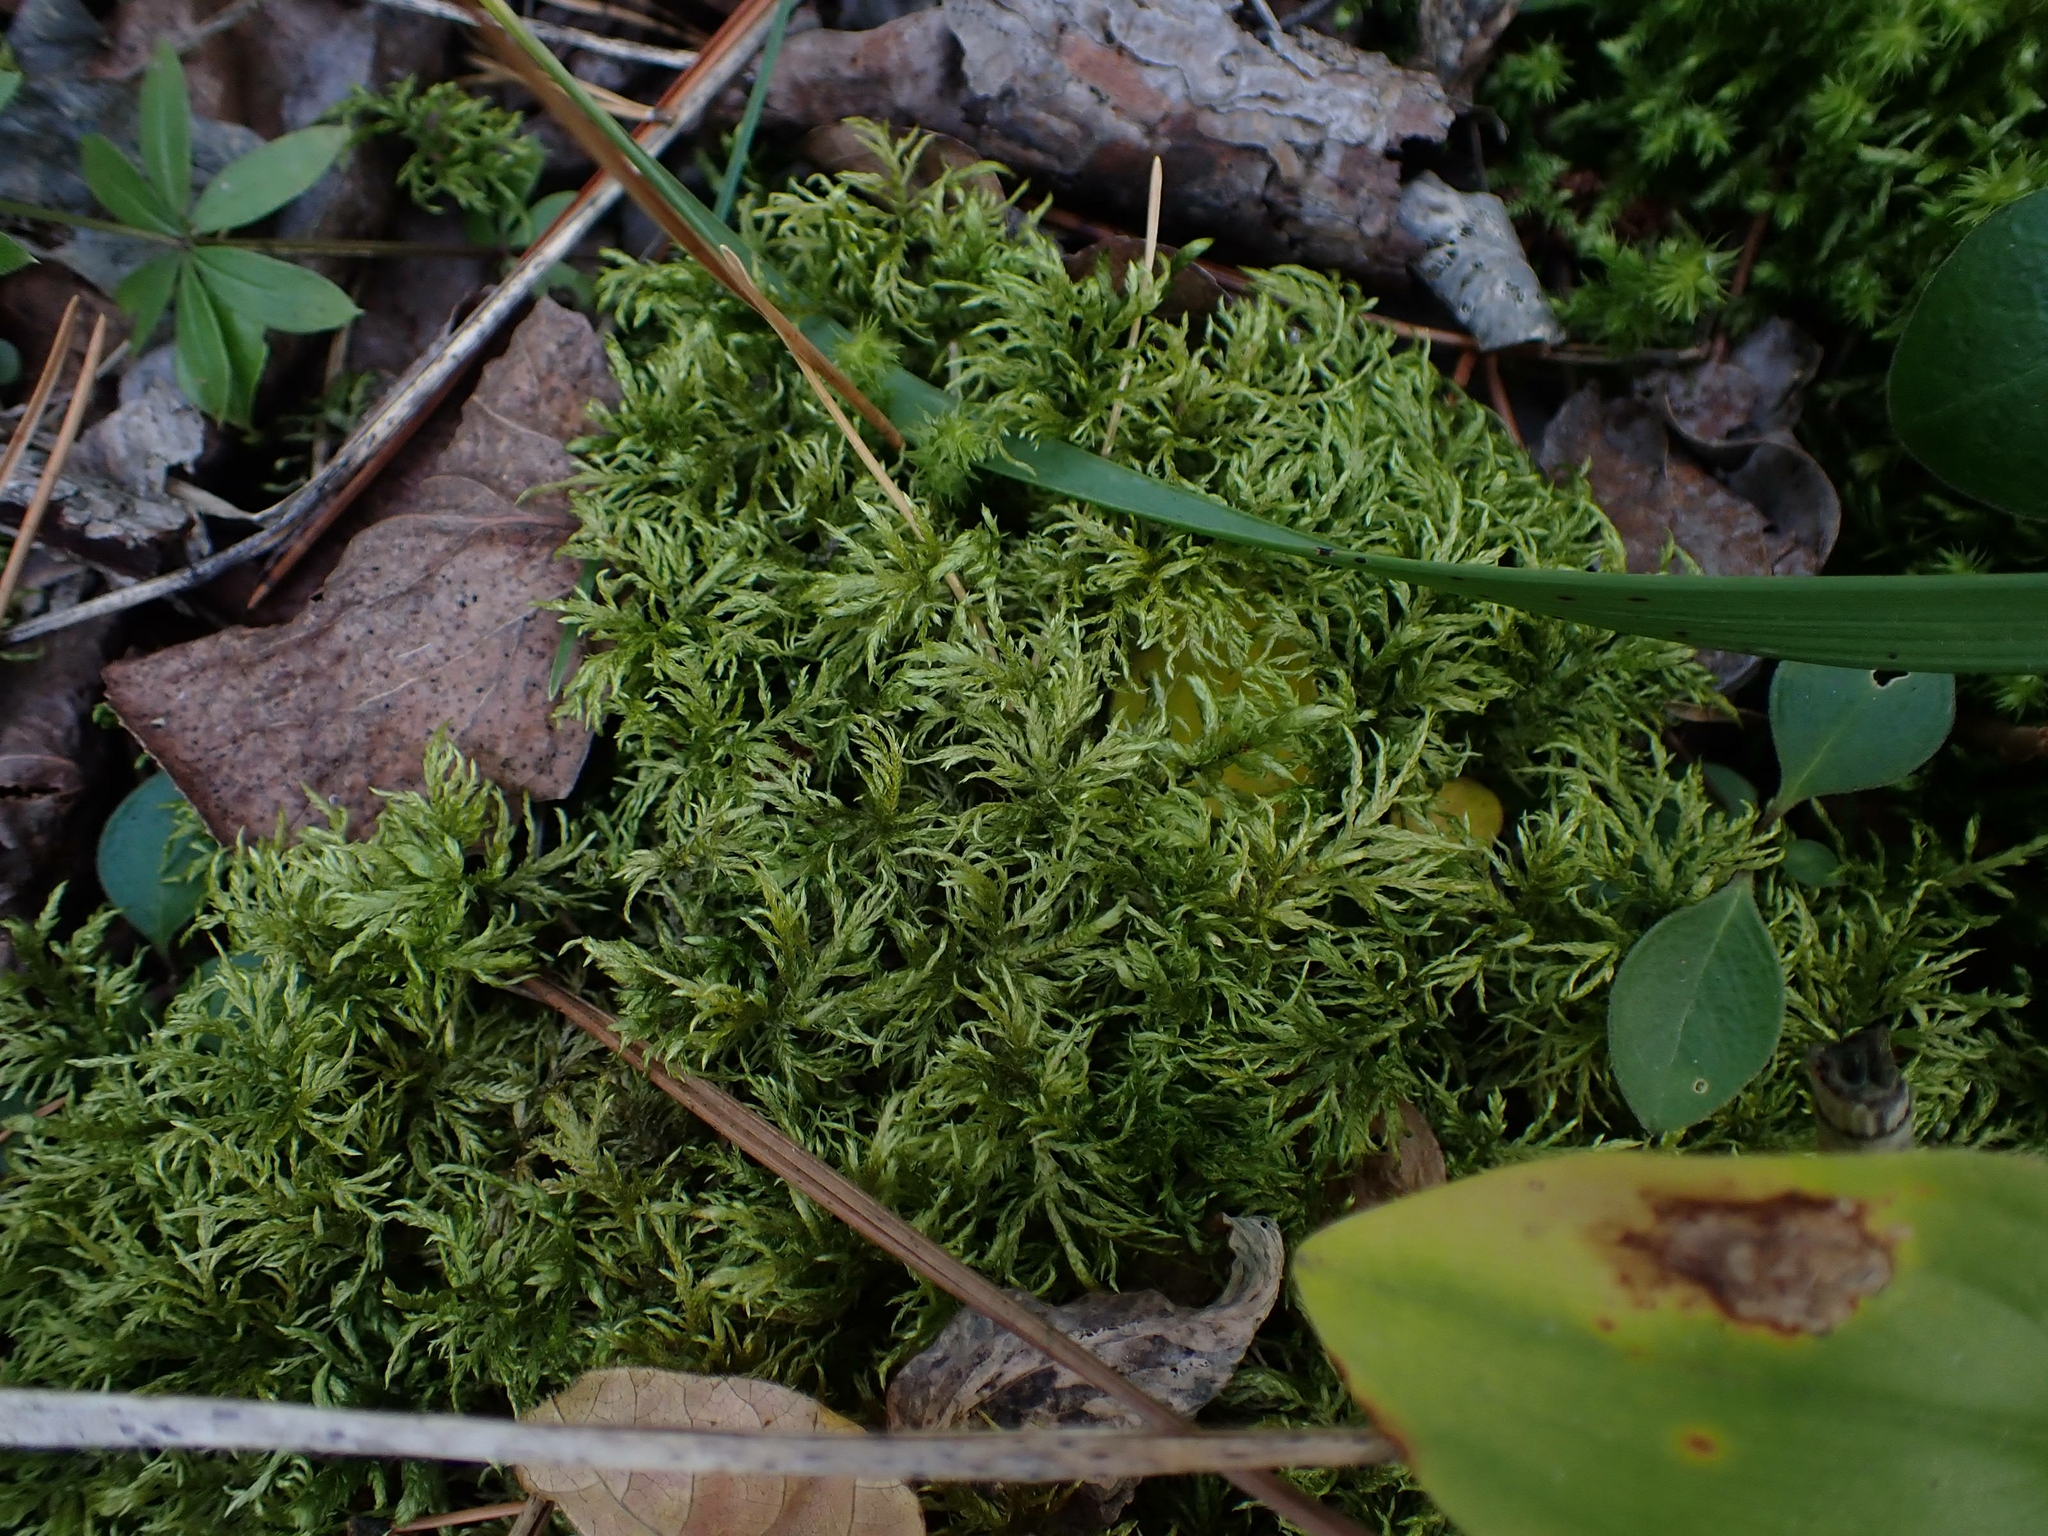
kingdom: Plantae
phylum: Bryophyta
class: Bryopsida
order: Hypnales
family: Hylocomiaceae
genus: Hylocomium
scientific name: Hylocomium splendens
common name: Stairstep moss
